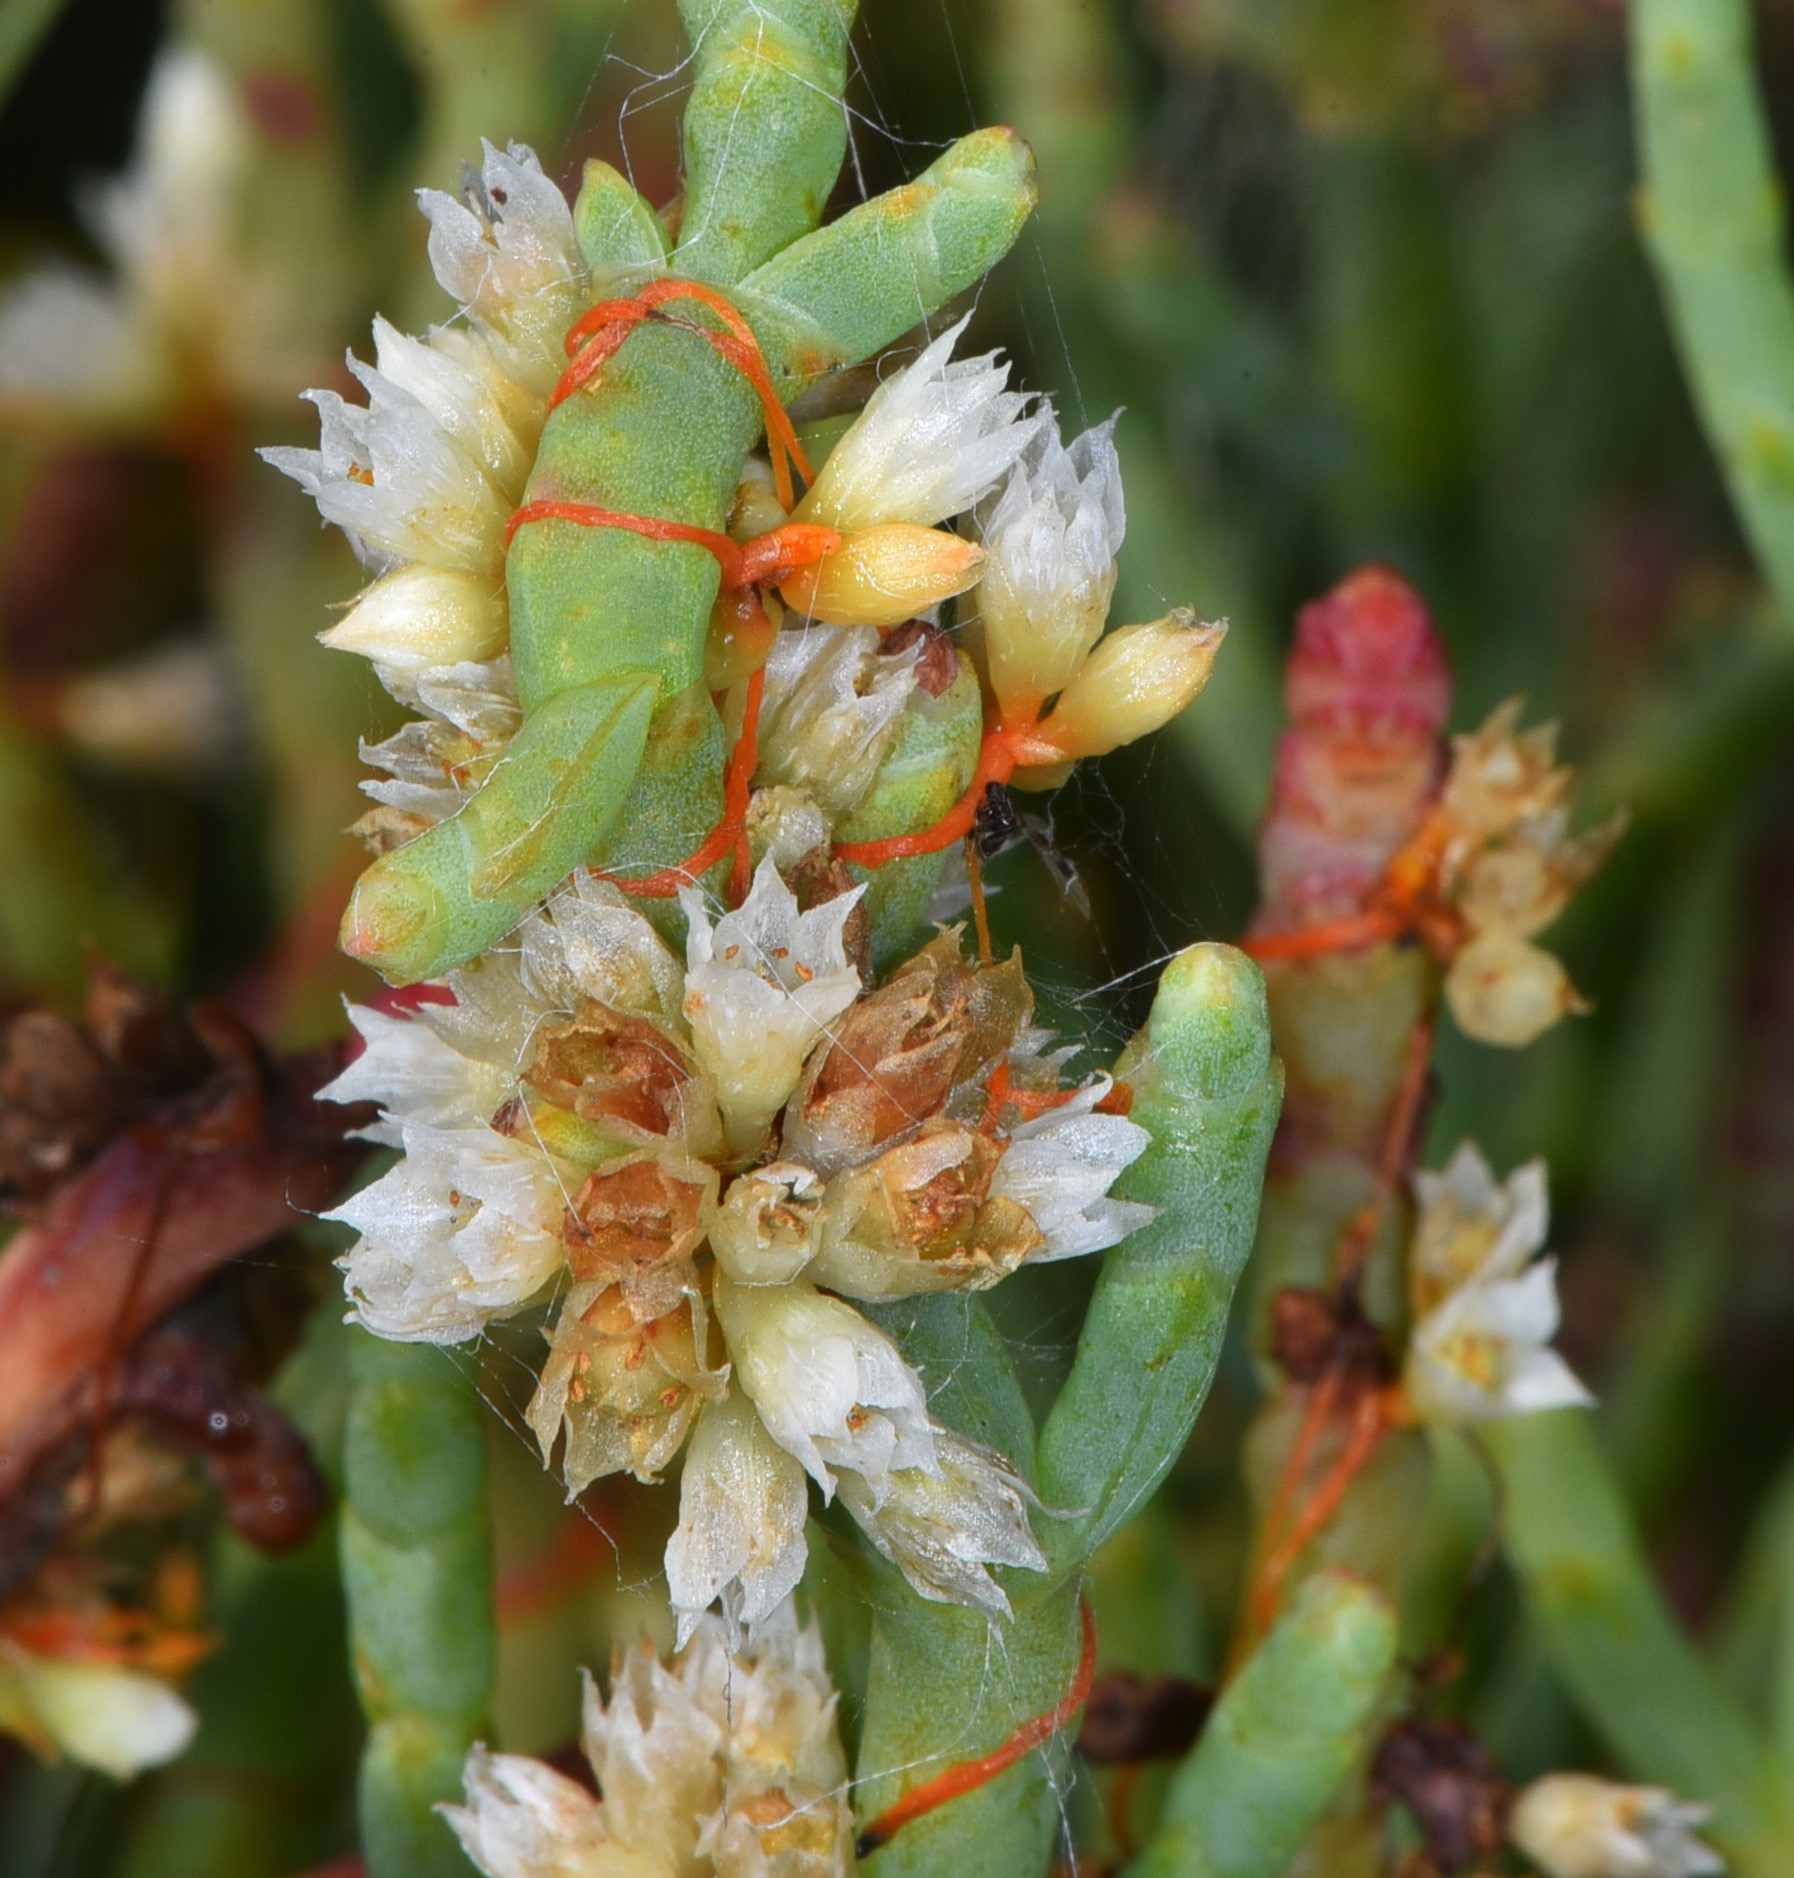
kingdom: Plantae
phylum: Tracheophyta
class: Magnoliopsida
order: Solanales
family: Convolvulaceae
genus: Cuscuta
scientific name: Cuscuta pacifica
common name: Large saltmarsh dodder
